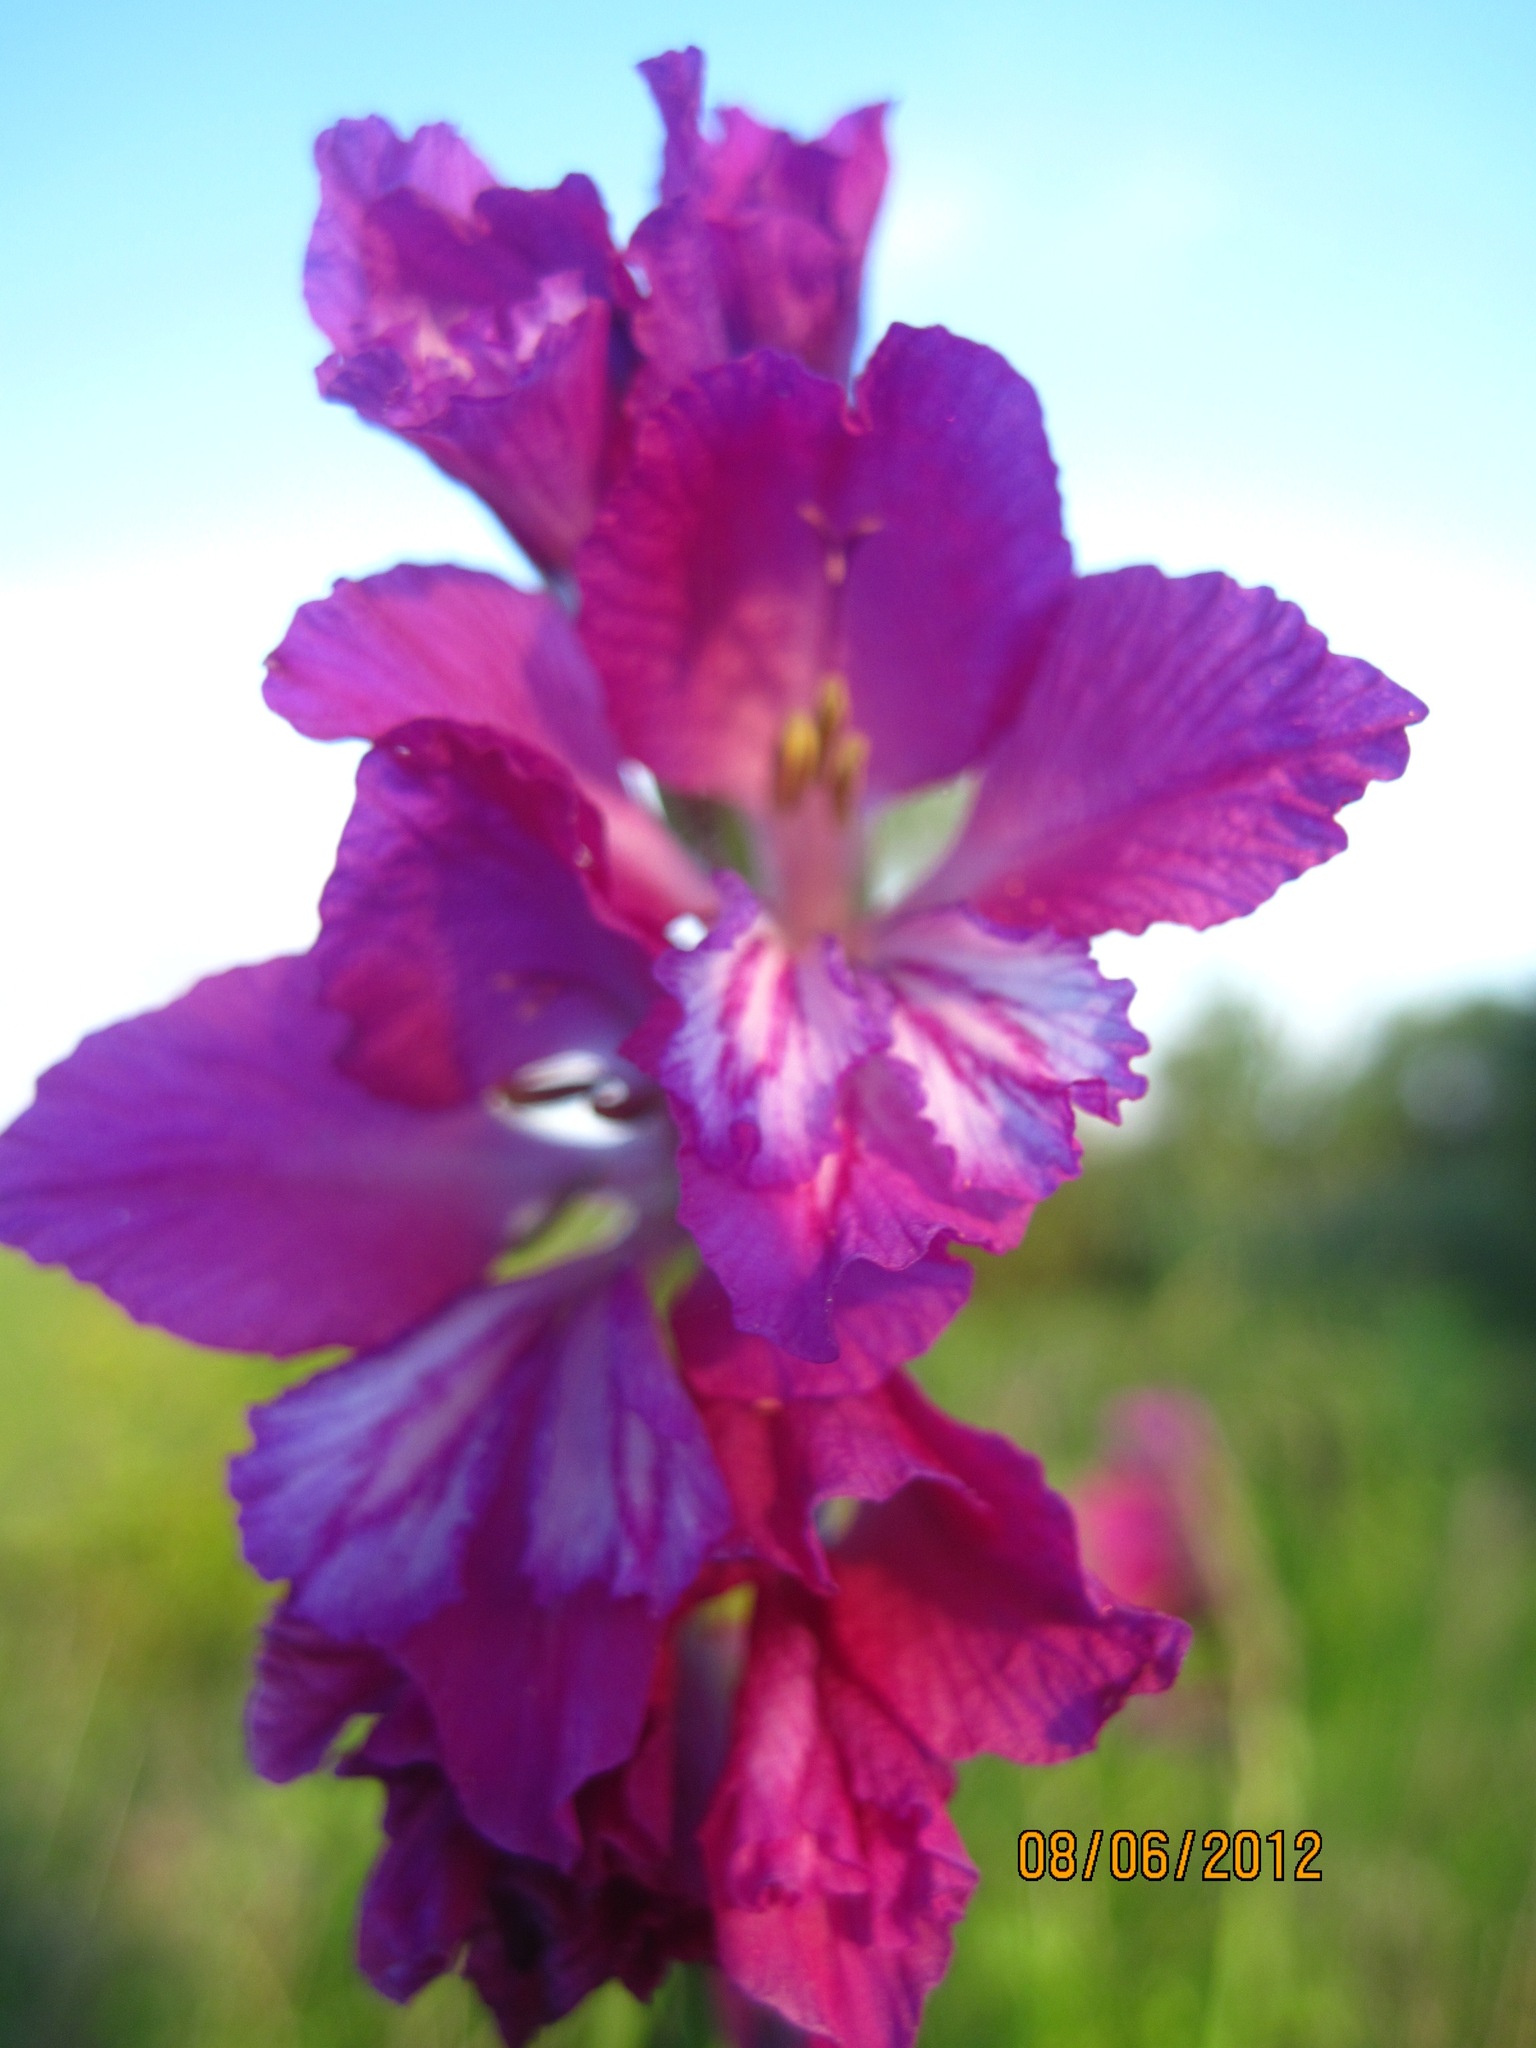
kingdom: Plantae
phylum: Tracheophyta
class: Liliopsida
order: Asparagales
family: Iridaceae
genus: Gladiolus
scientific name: Gladiolus tenuis
